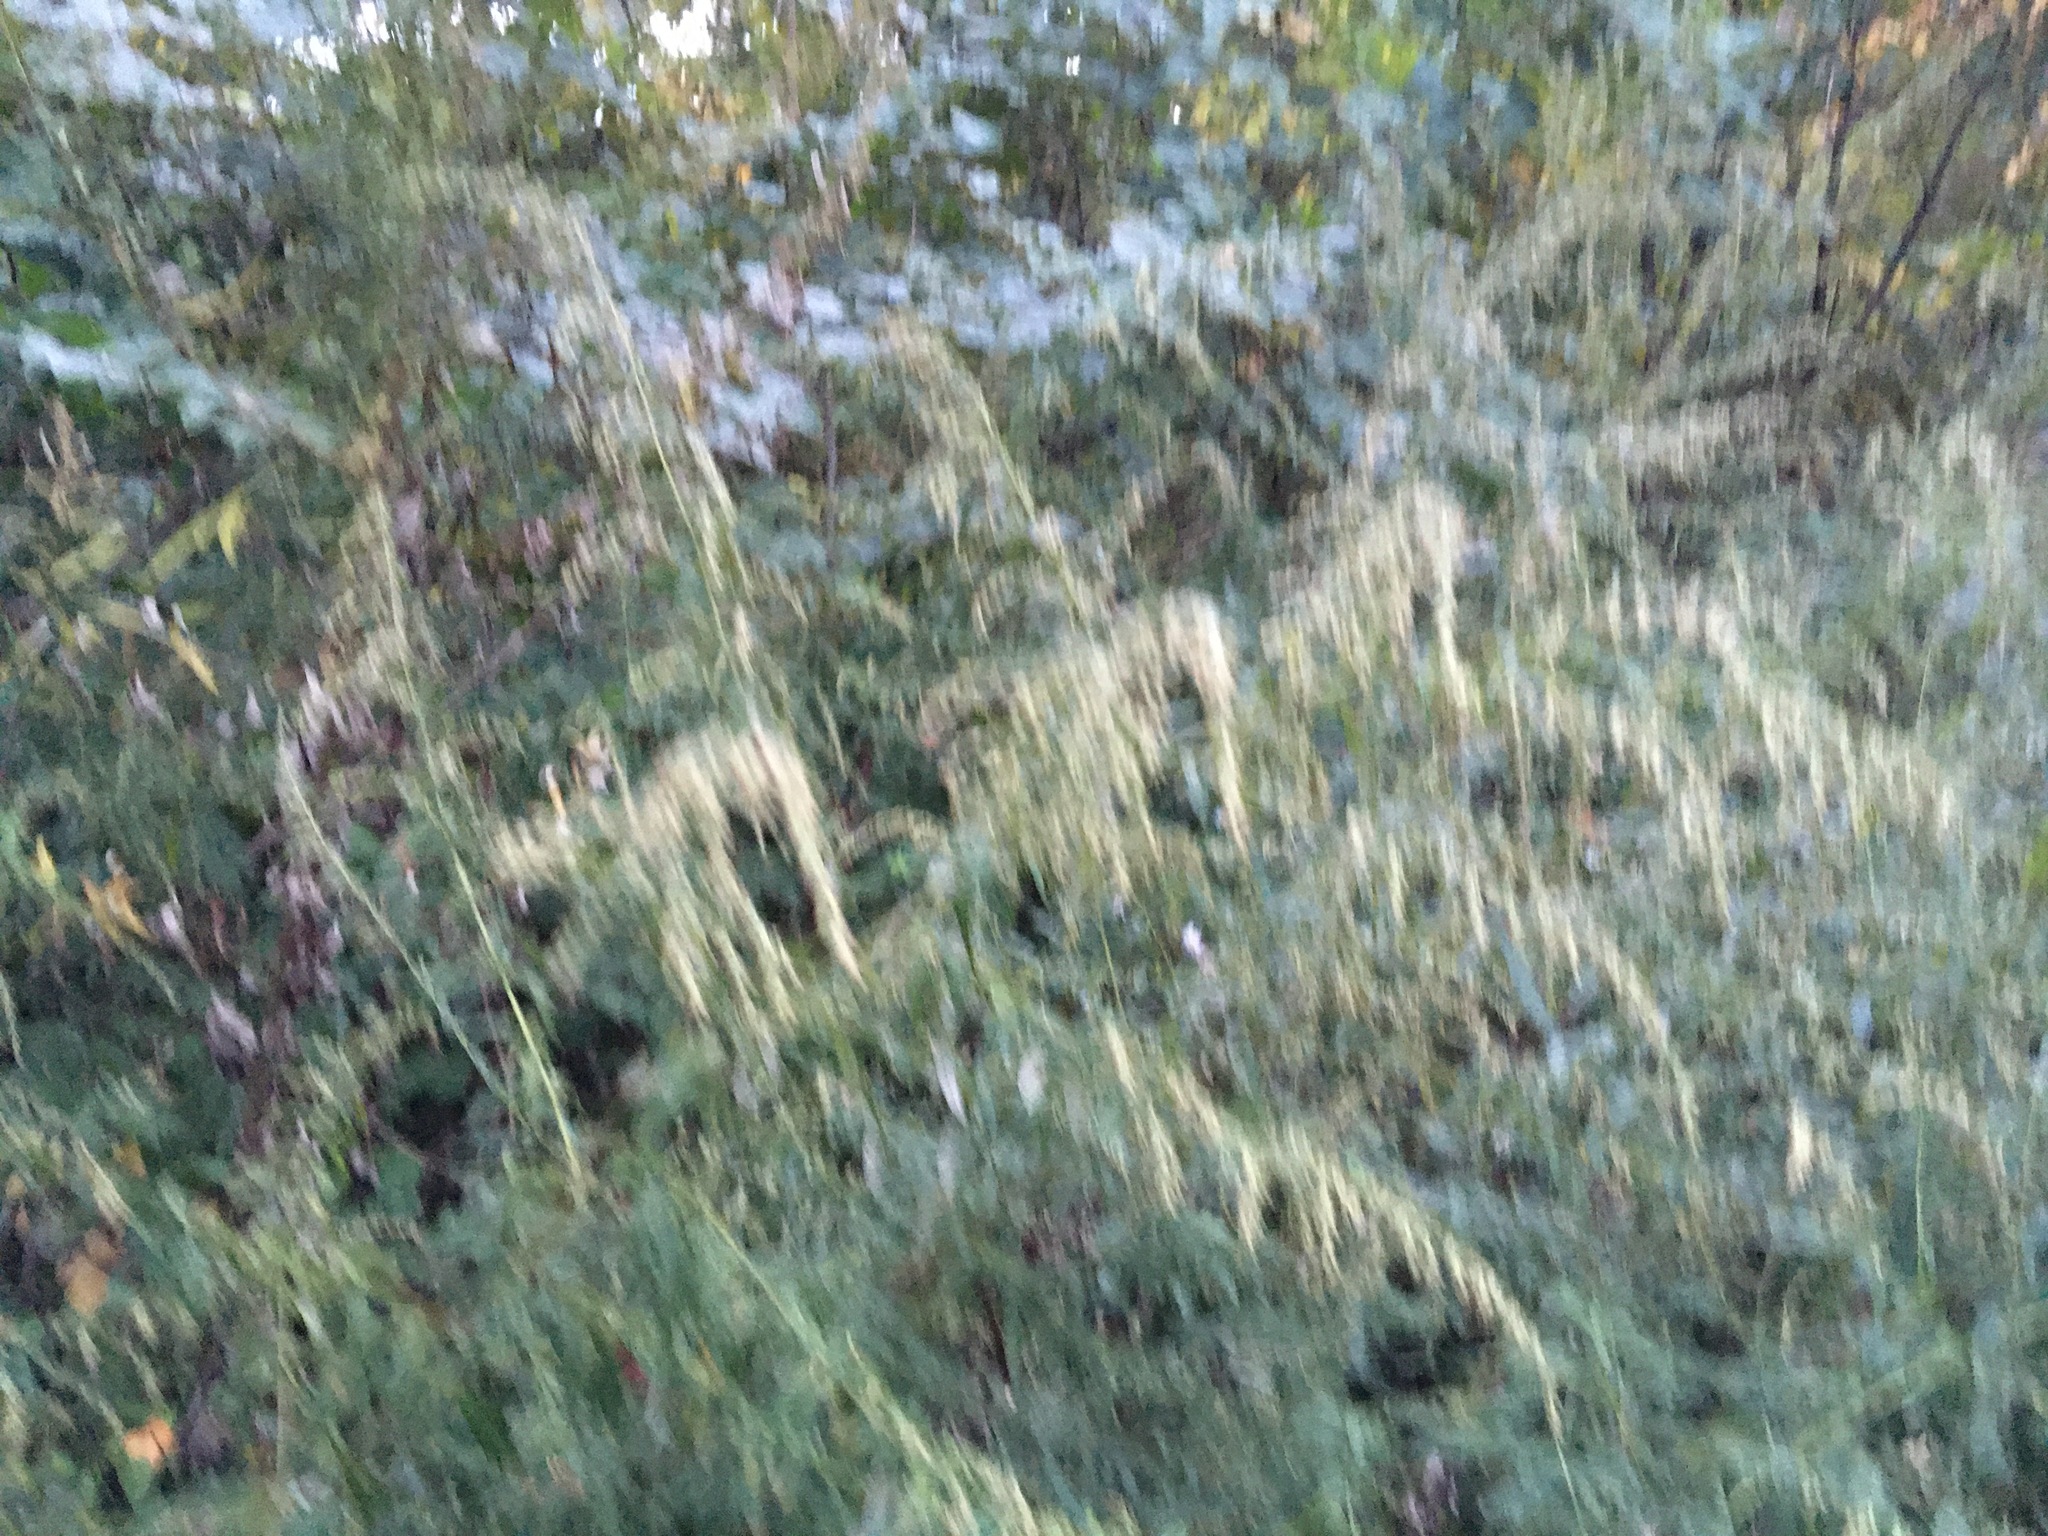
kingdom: Plantae
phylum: Tracheophyta
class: Magnoliopsida
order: Asterales
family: Asteraceae
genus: Artemisia
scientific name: Artemisia vulgaris
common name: Mugwort
